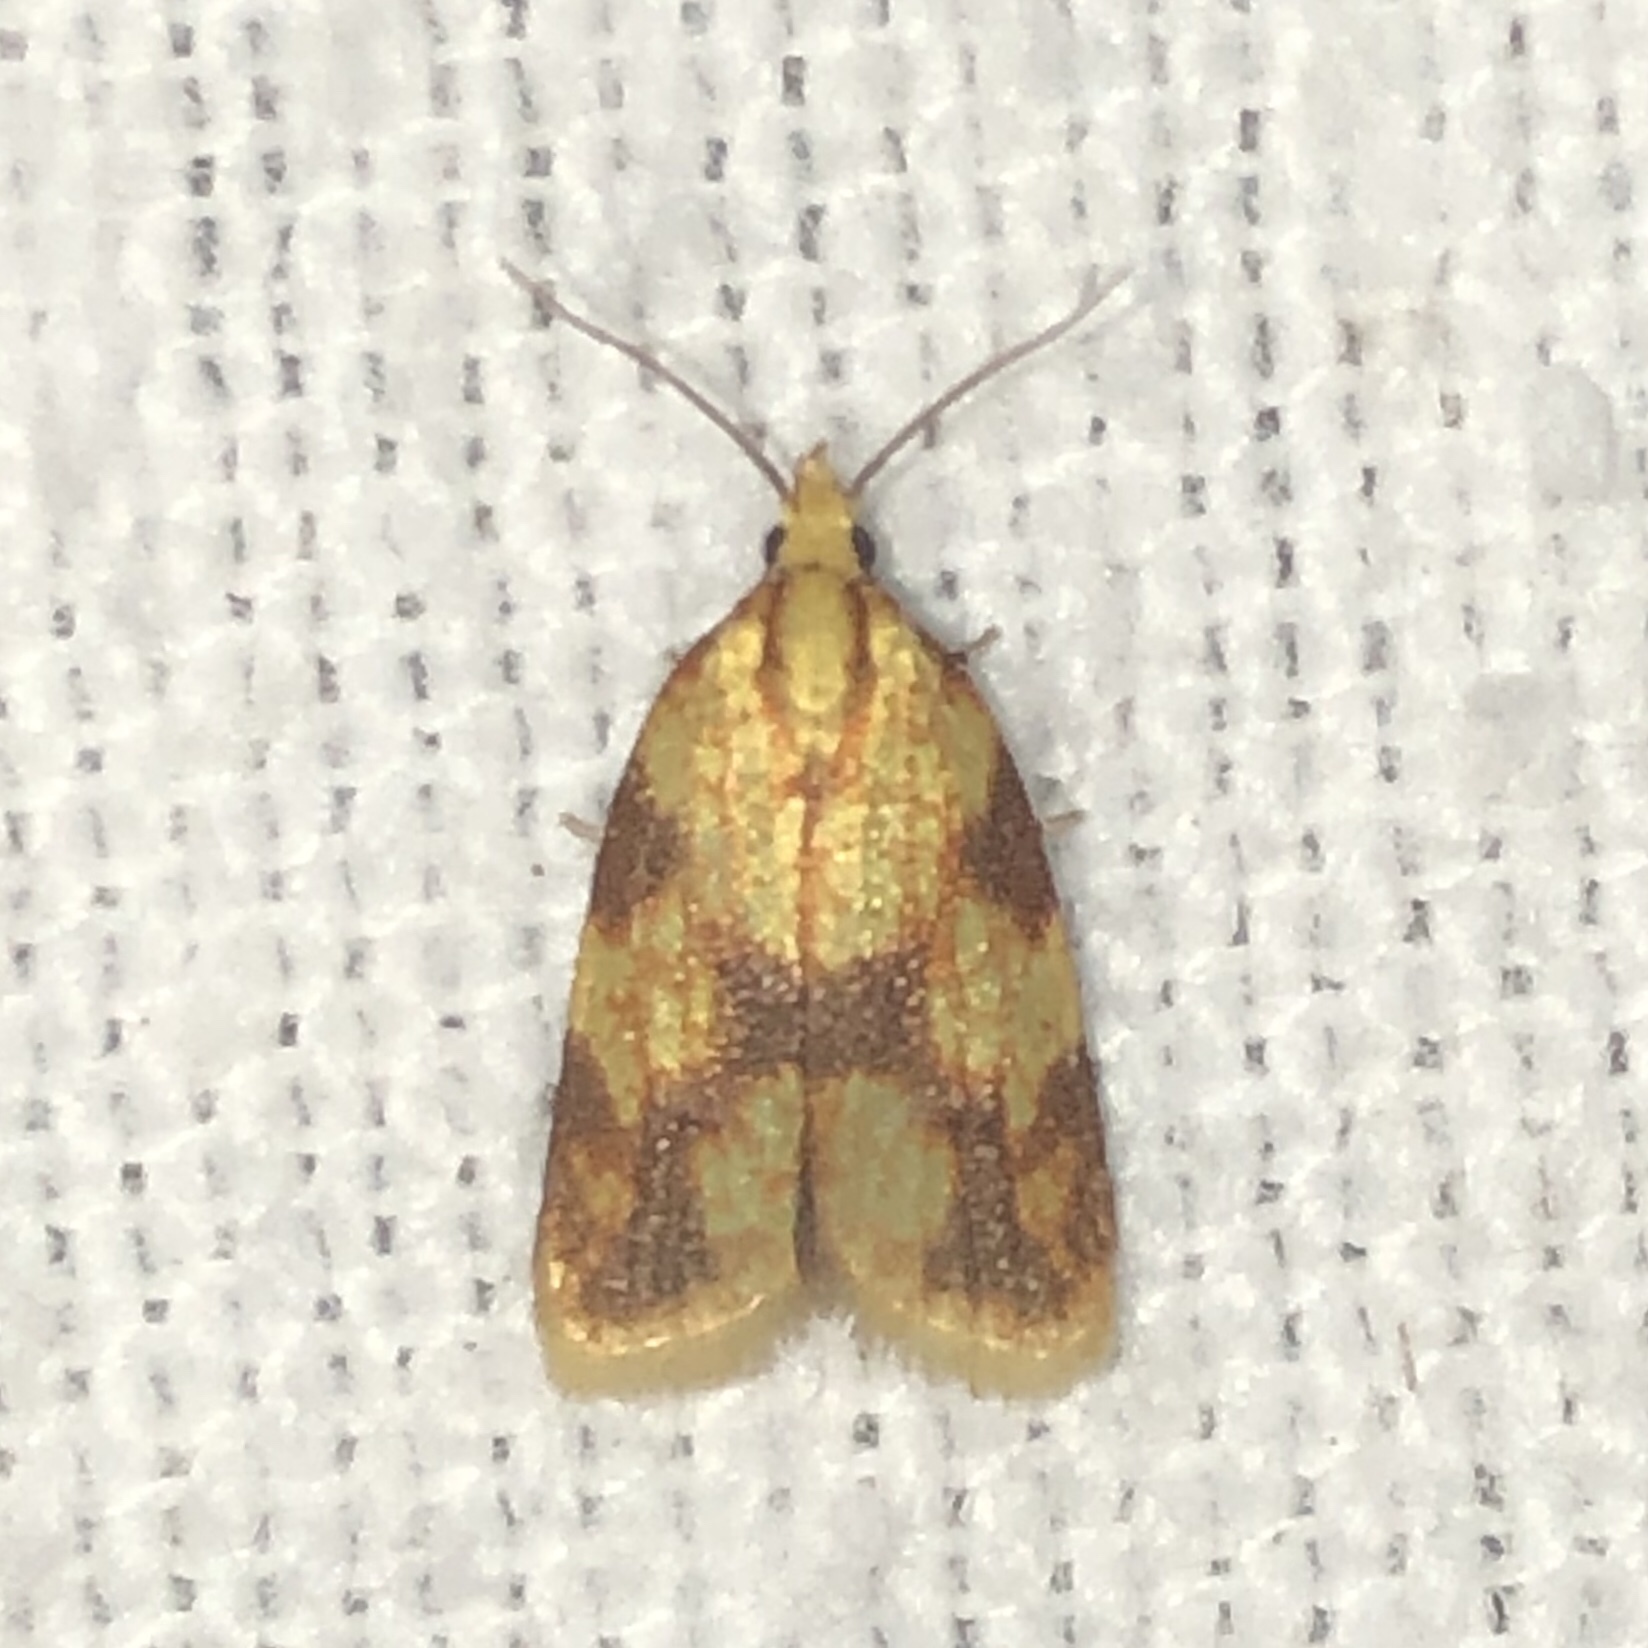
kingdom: Animalia
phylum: Arthropoda
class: Insecta
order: Lepidoptera
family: Tortricidae
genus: Sparganothis
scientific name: Sparganothis sulfureana
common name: Sparganothis fruitworm moth
